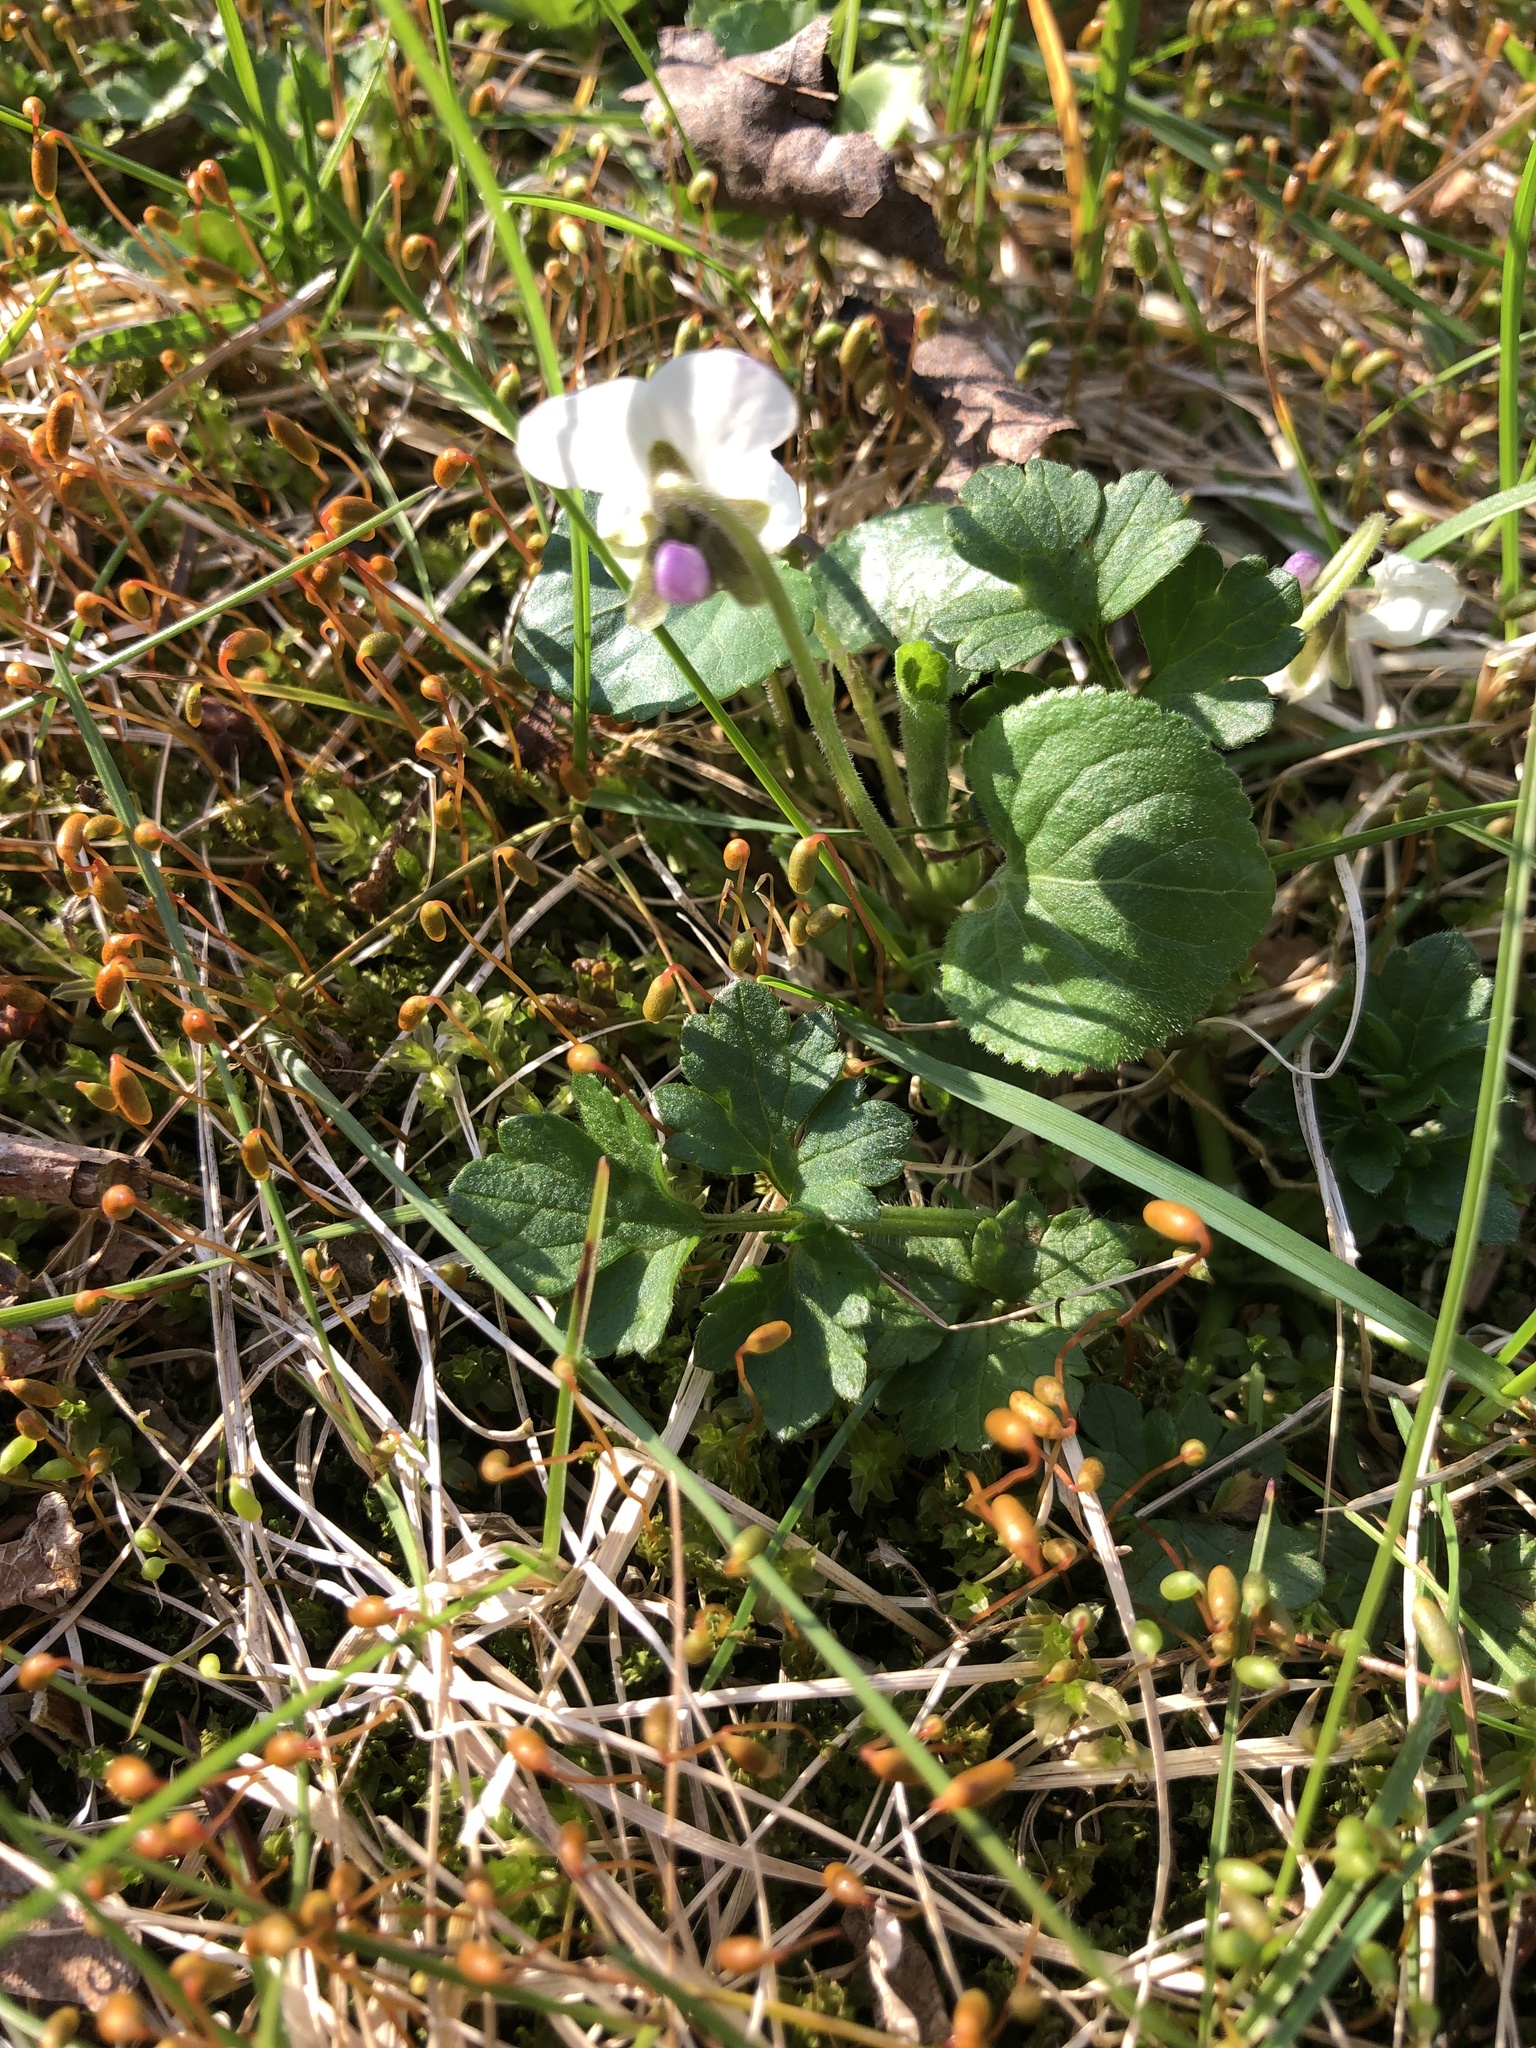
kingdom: Plantae
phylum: Tracheophyta
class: Magnoliopsida
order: Malpighiales
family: Violaceae
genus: Viola
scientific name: Viola odorata
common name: Sweet violet
